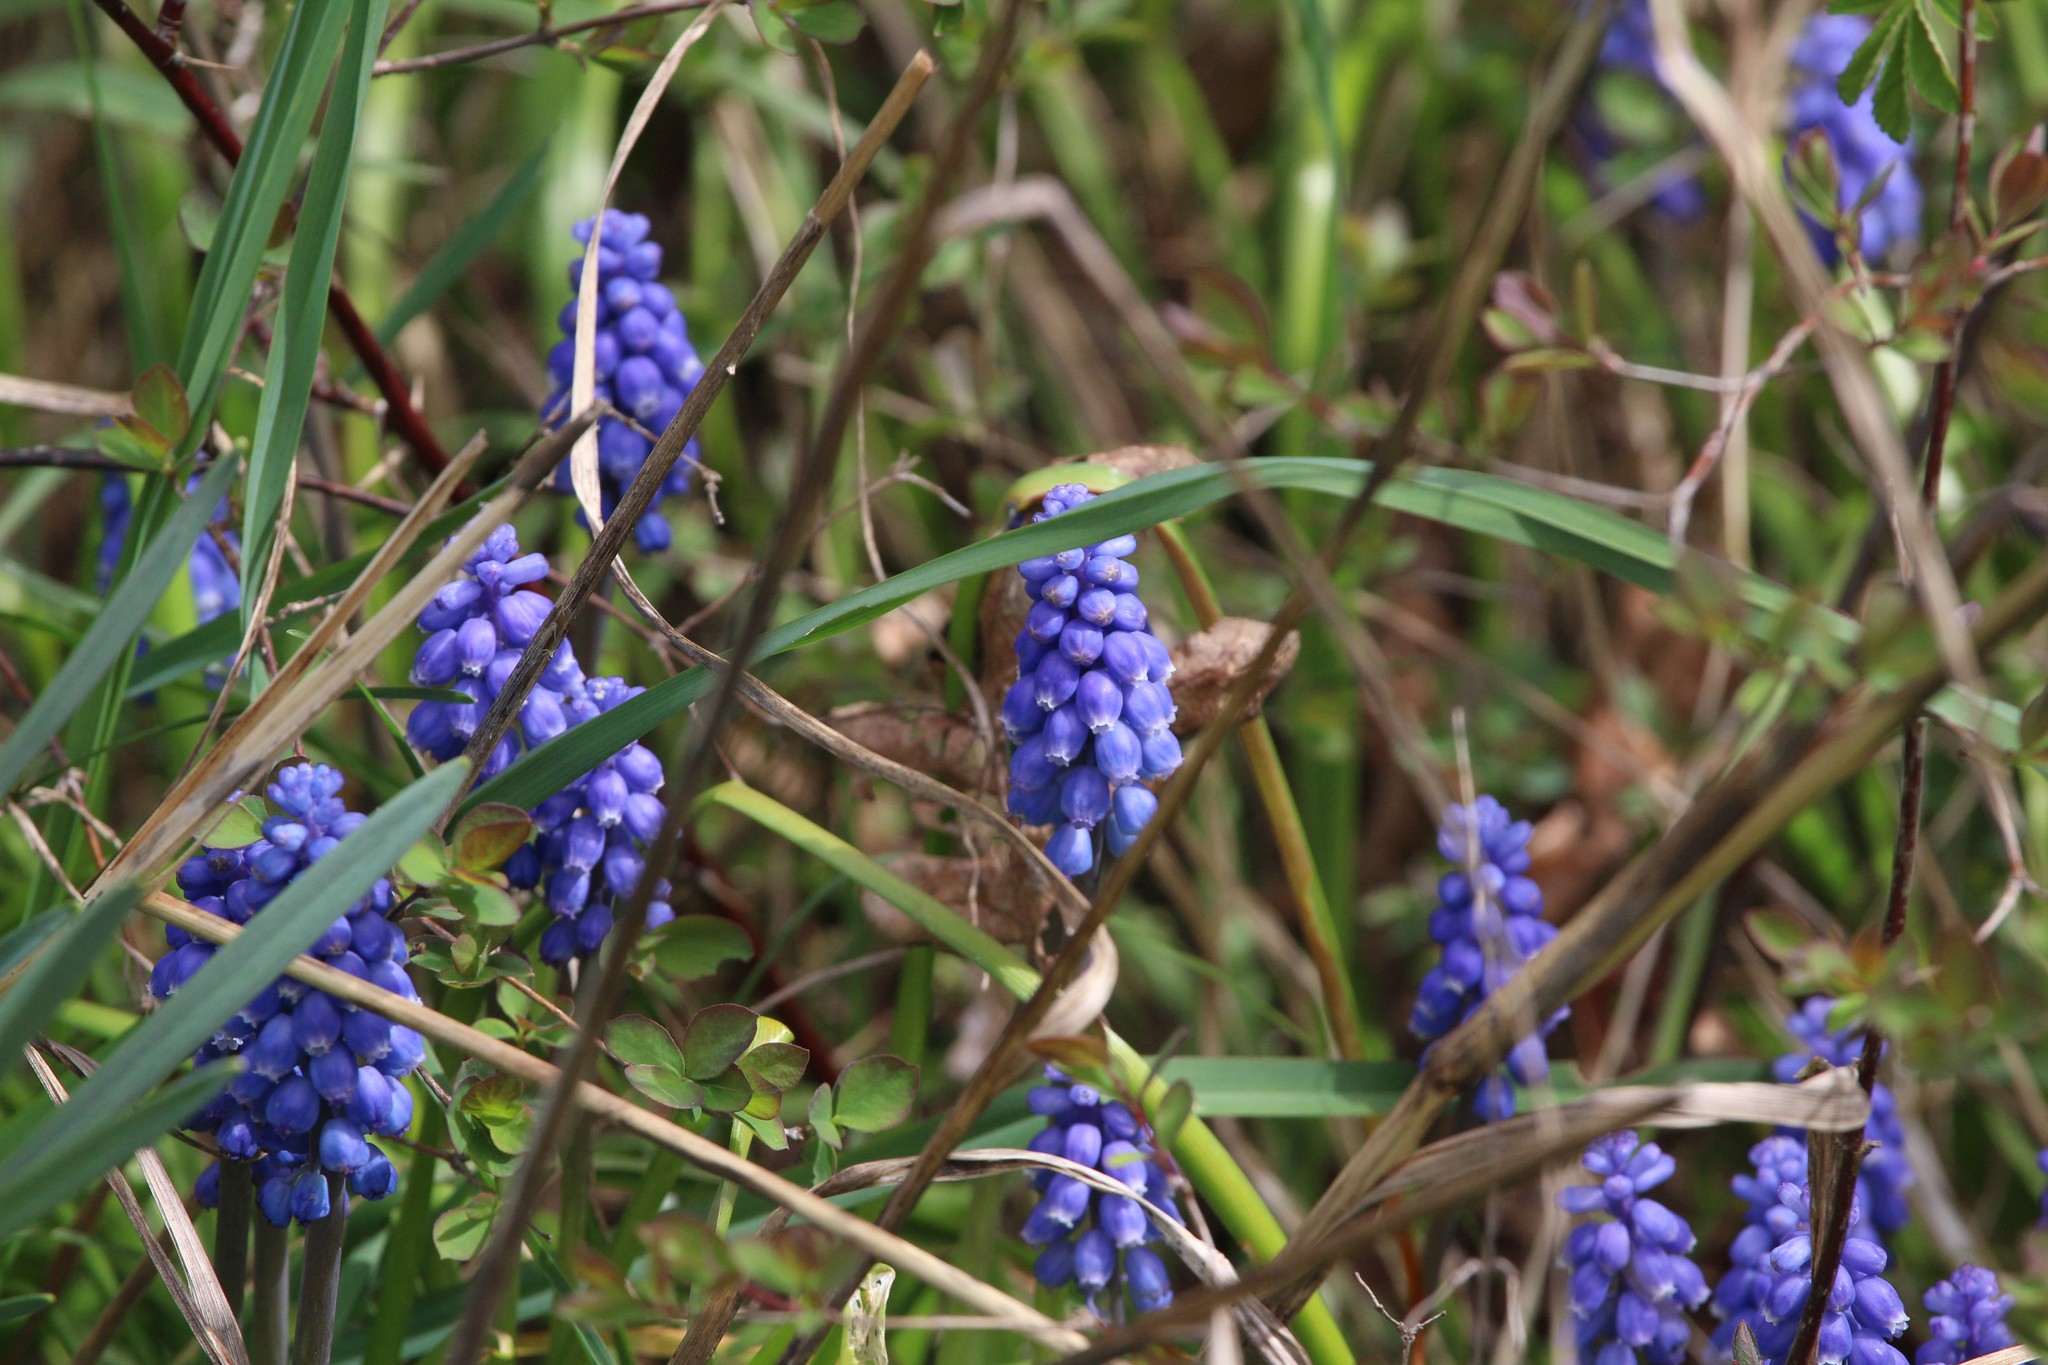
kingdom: Plantae
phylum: Tracheophyta
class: Liliopsida
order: Asparagales
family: Asparagaceae
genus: Muscari
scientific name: Muscari armeniacum
